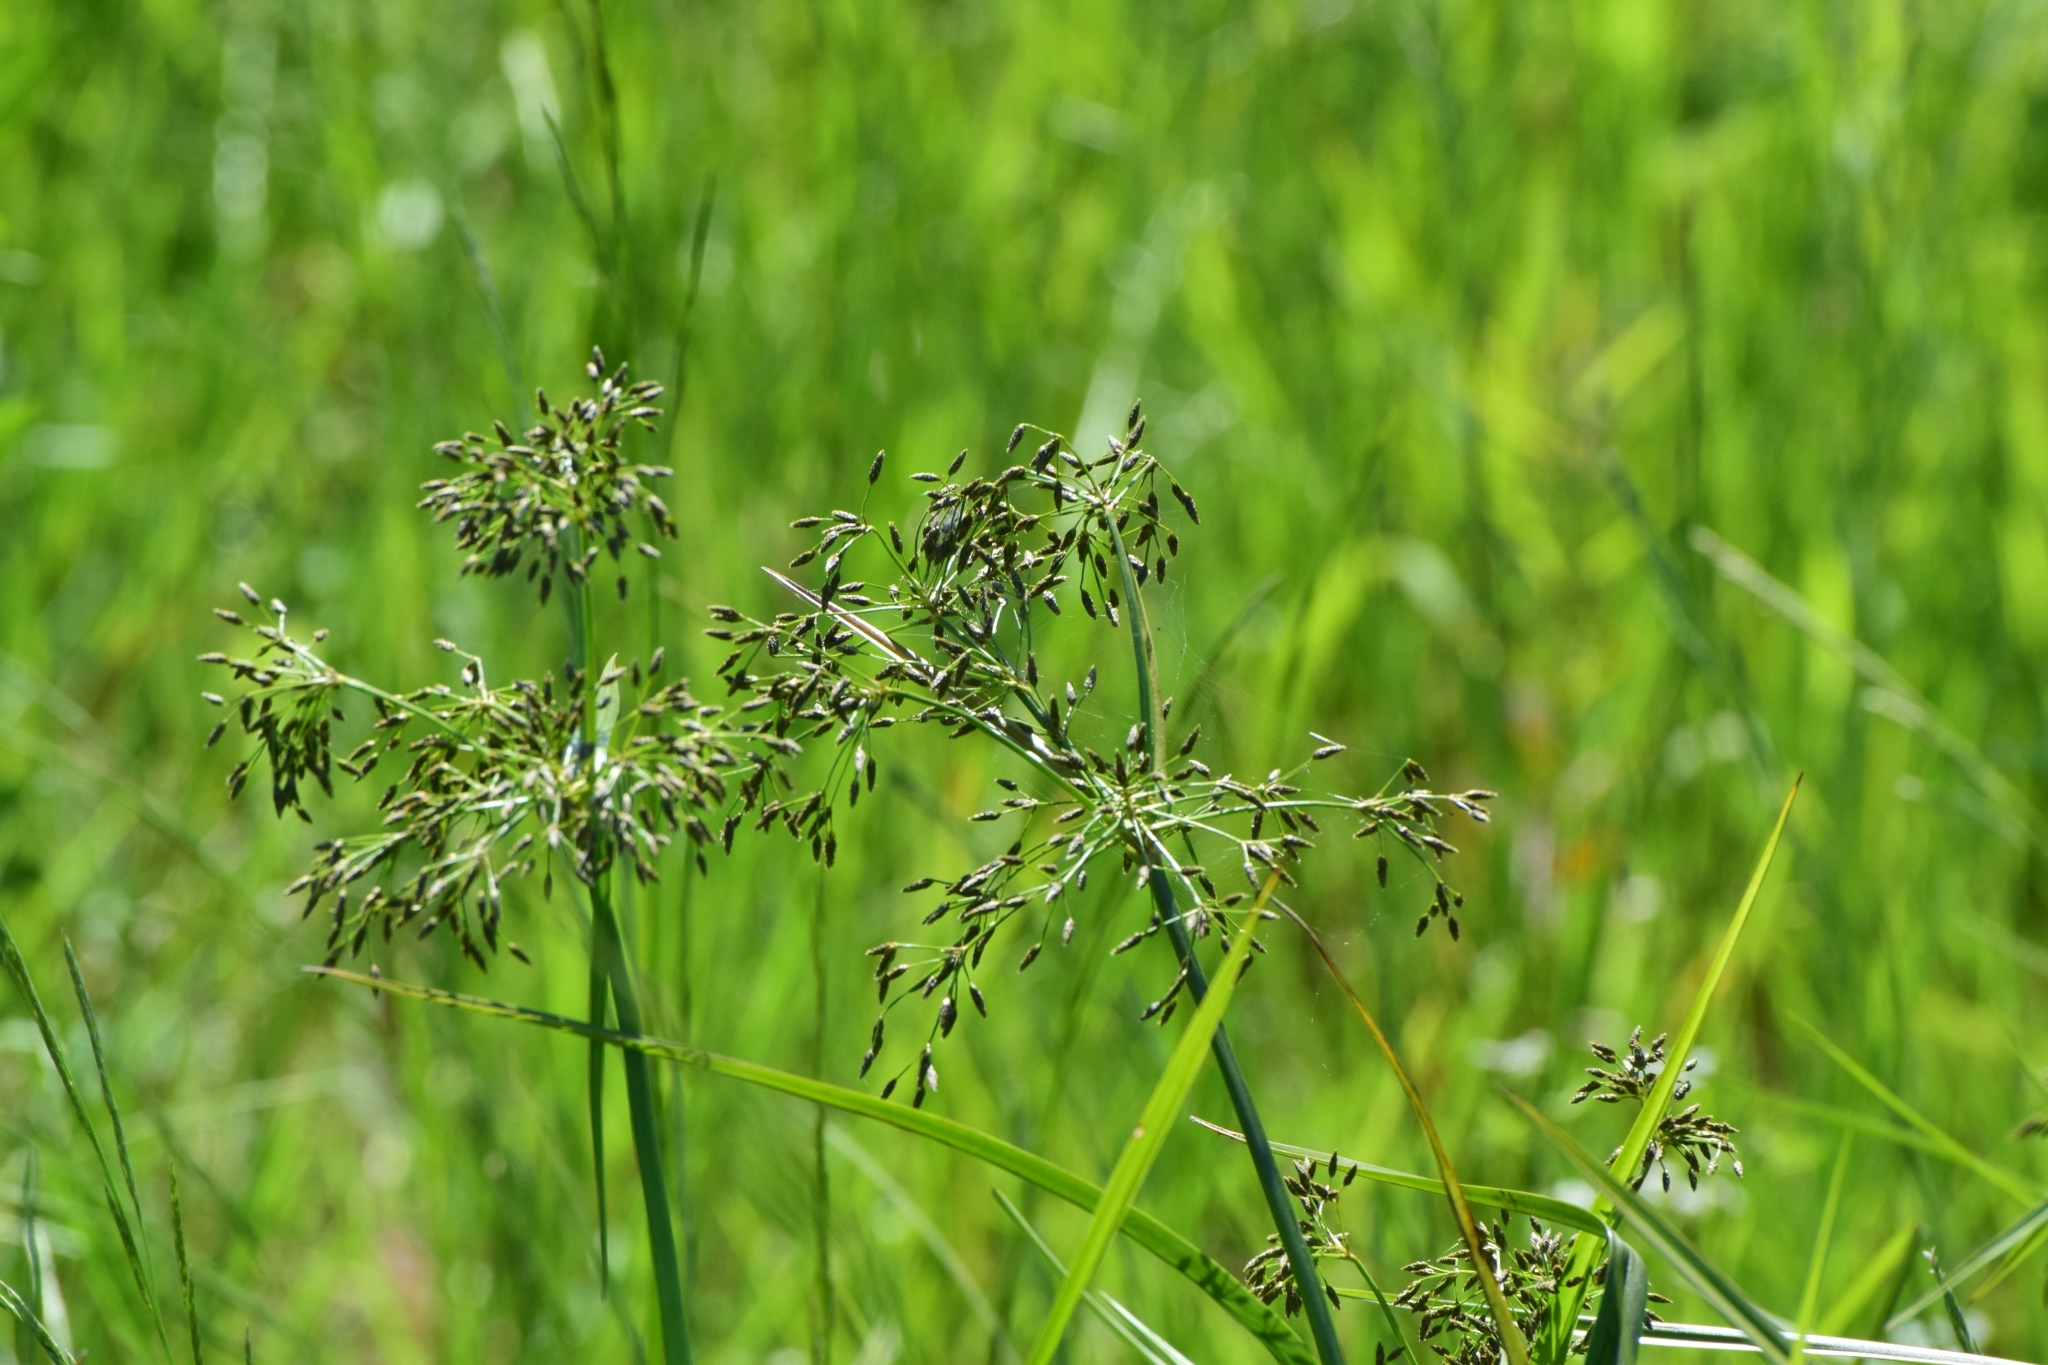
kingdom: Plantae
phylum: Tracheophyta
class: Liliopsida
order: Poales
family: Cyperaceae
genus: Scirpus
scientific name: Scirpus radicans
